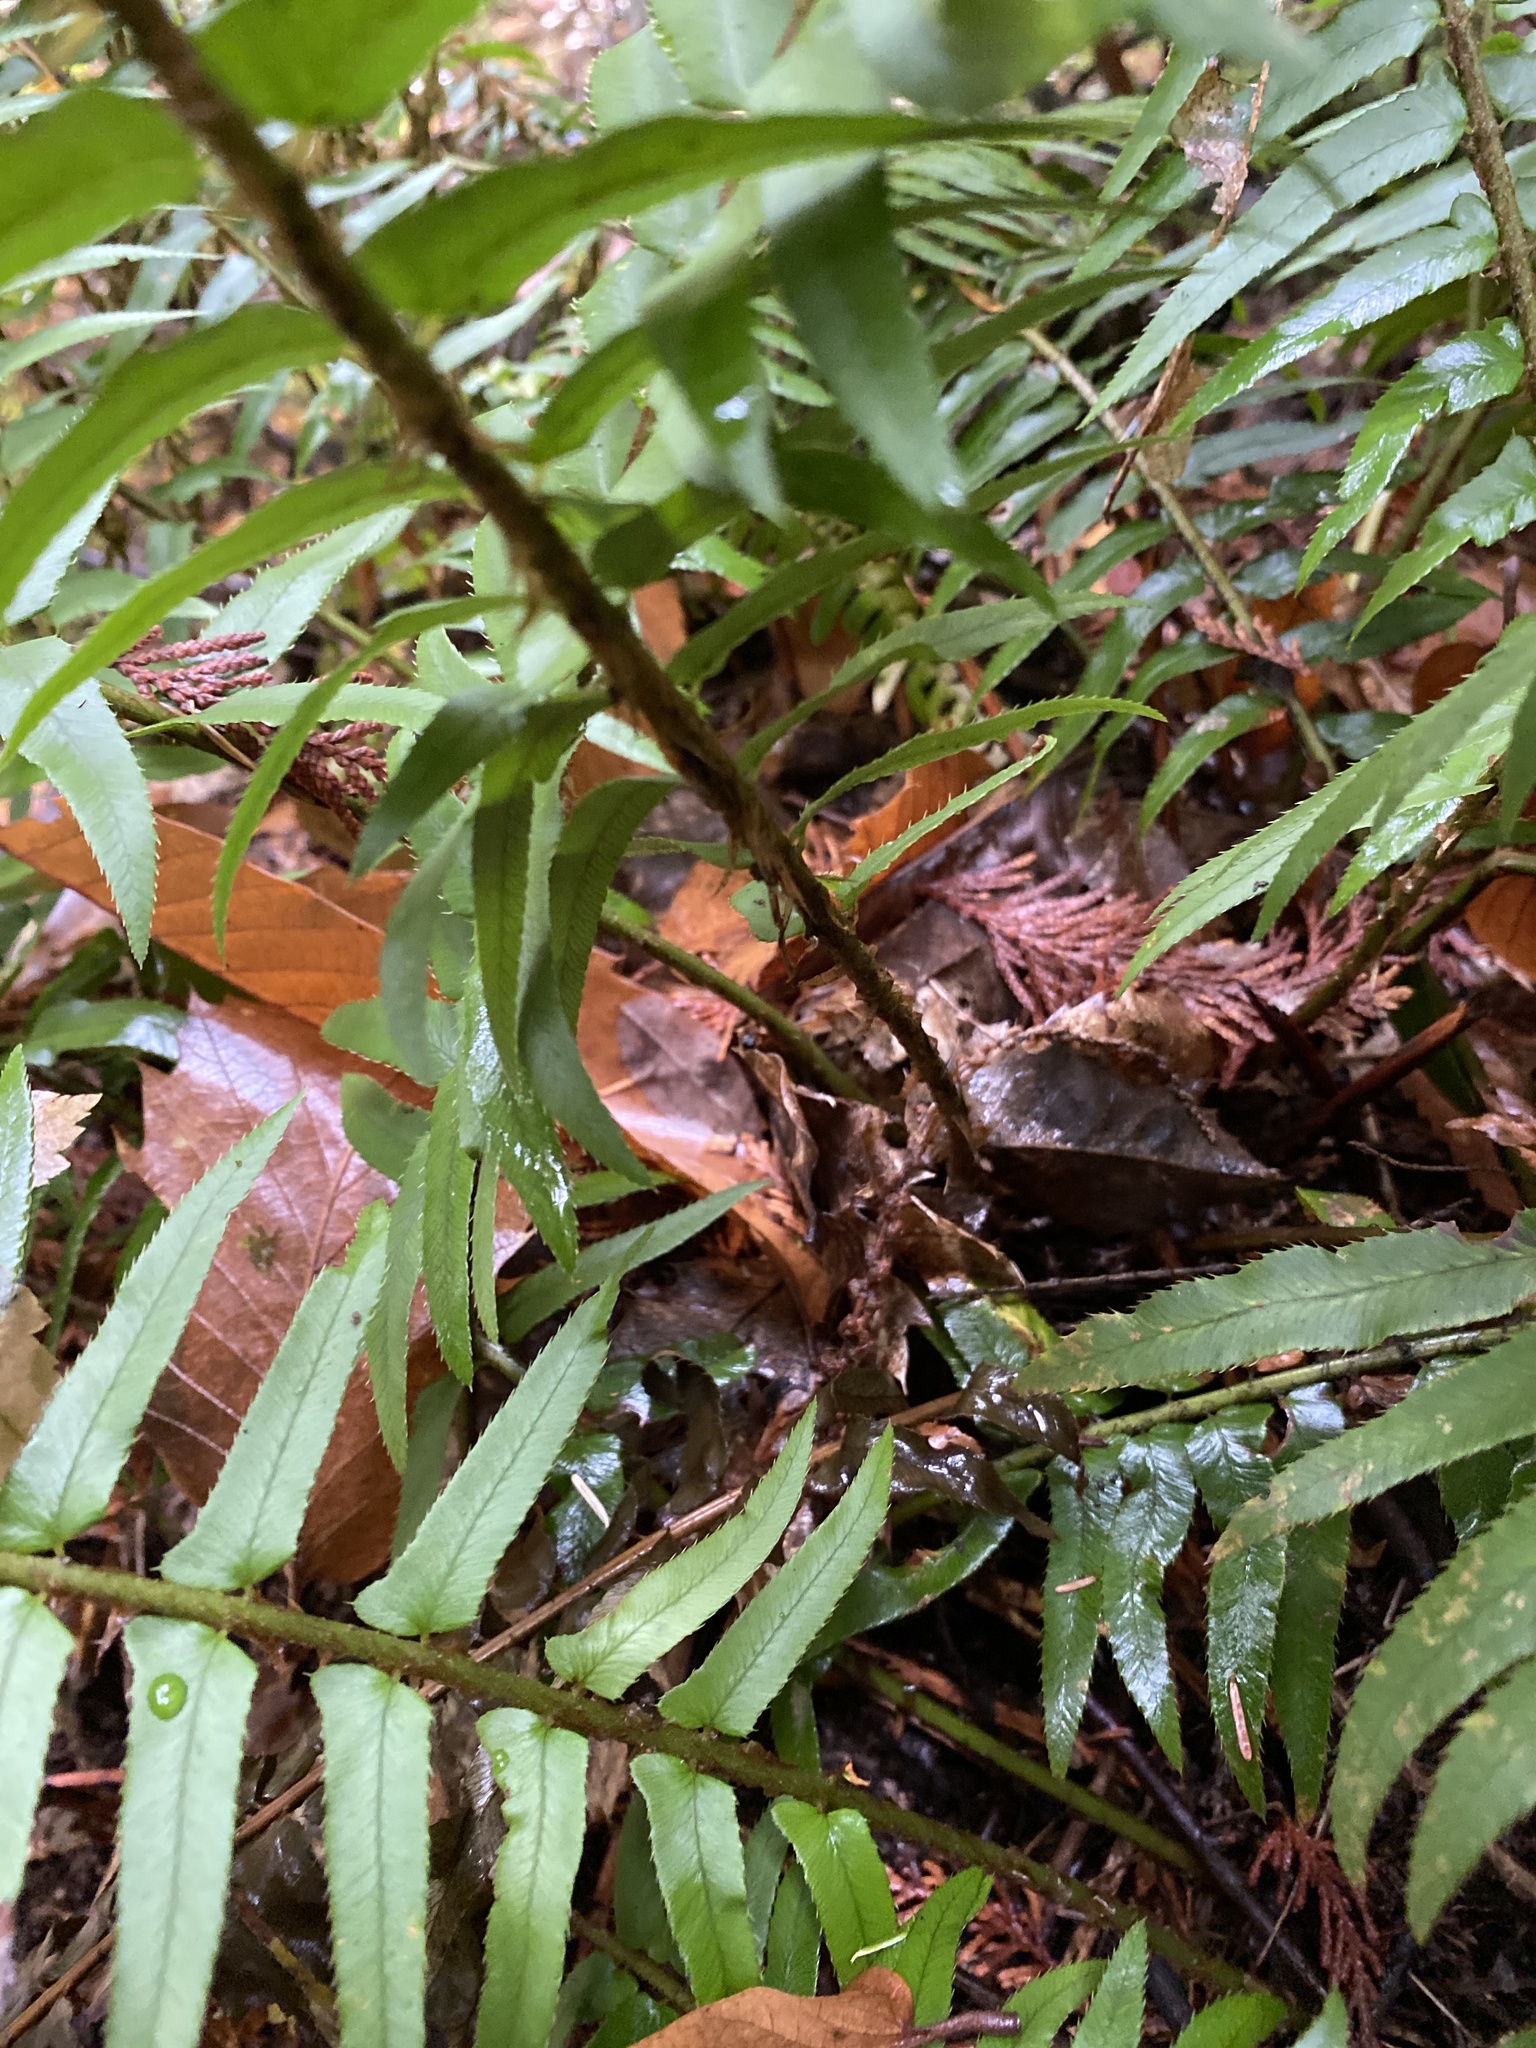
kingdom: Plantae
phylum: Tracheophyta
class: Polypodiopsida
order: Polypodiales
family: Dryopteridaceae
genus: Polystichum
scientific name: Polystichum munitum
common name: Western sword-fern
